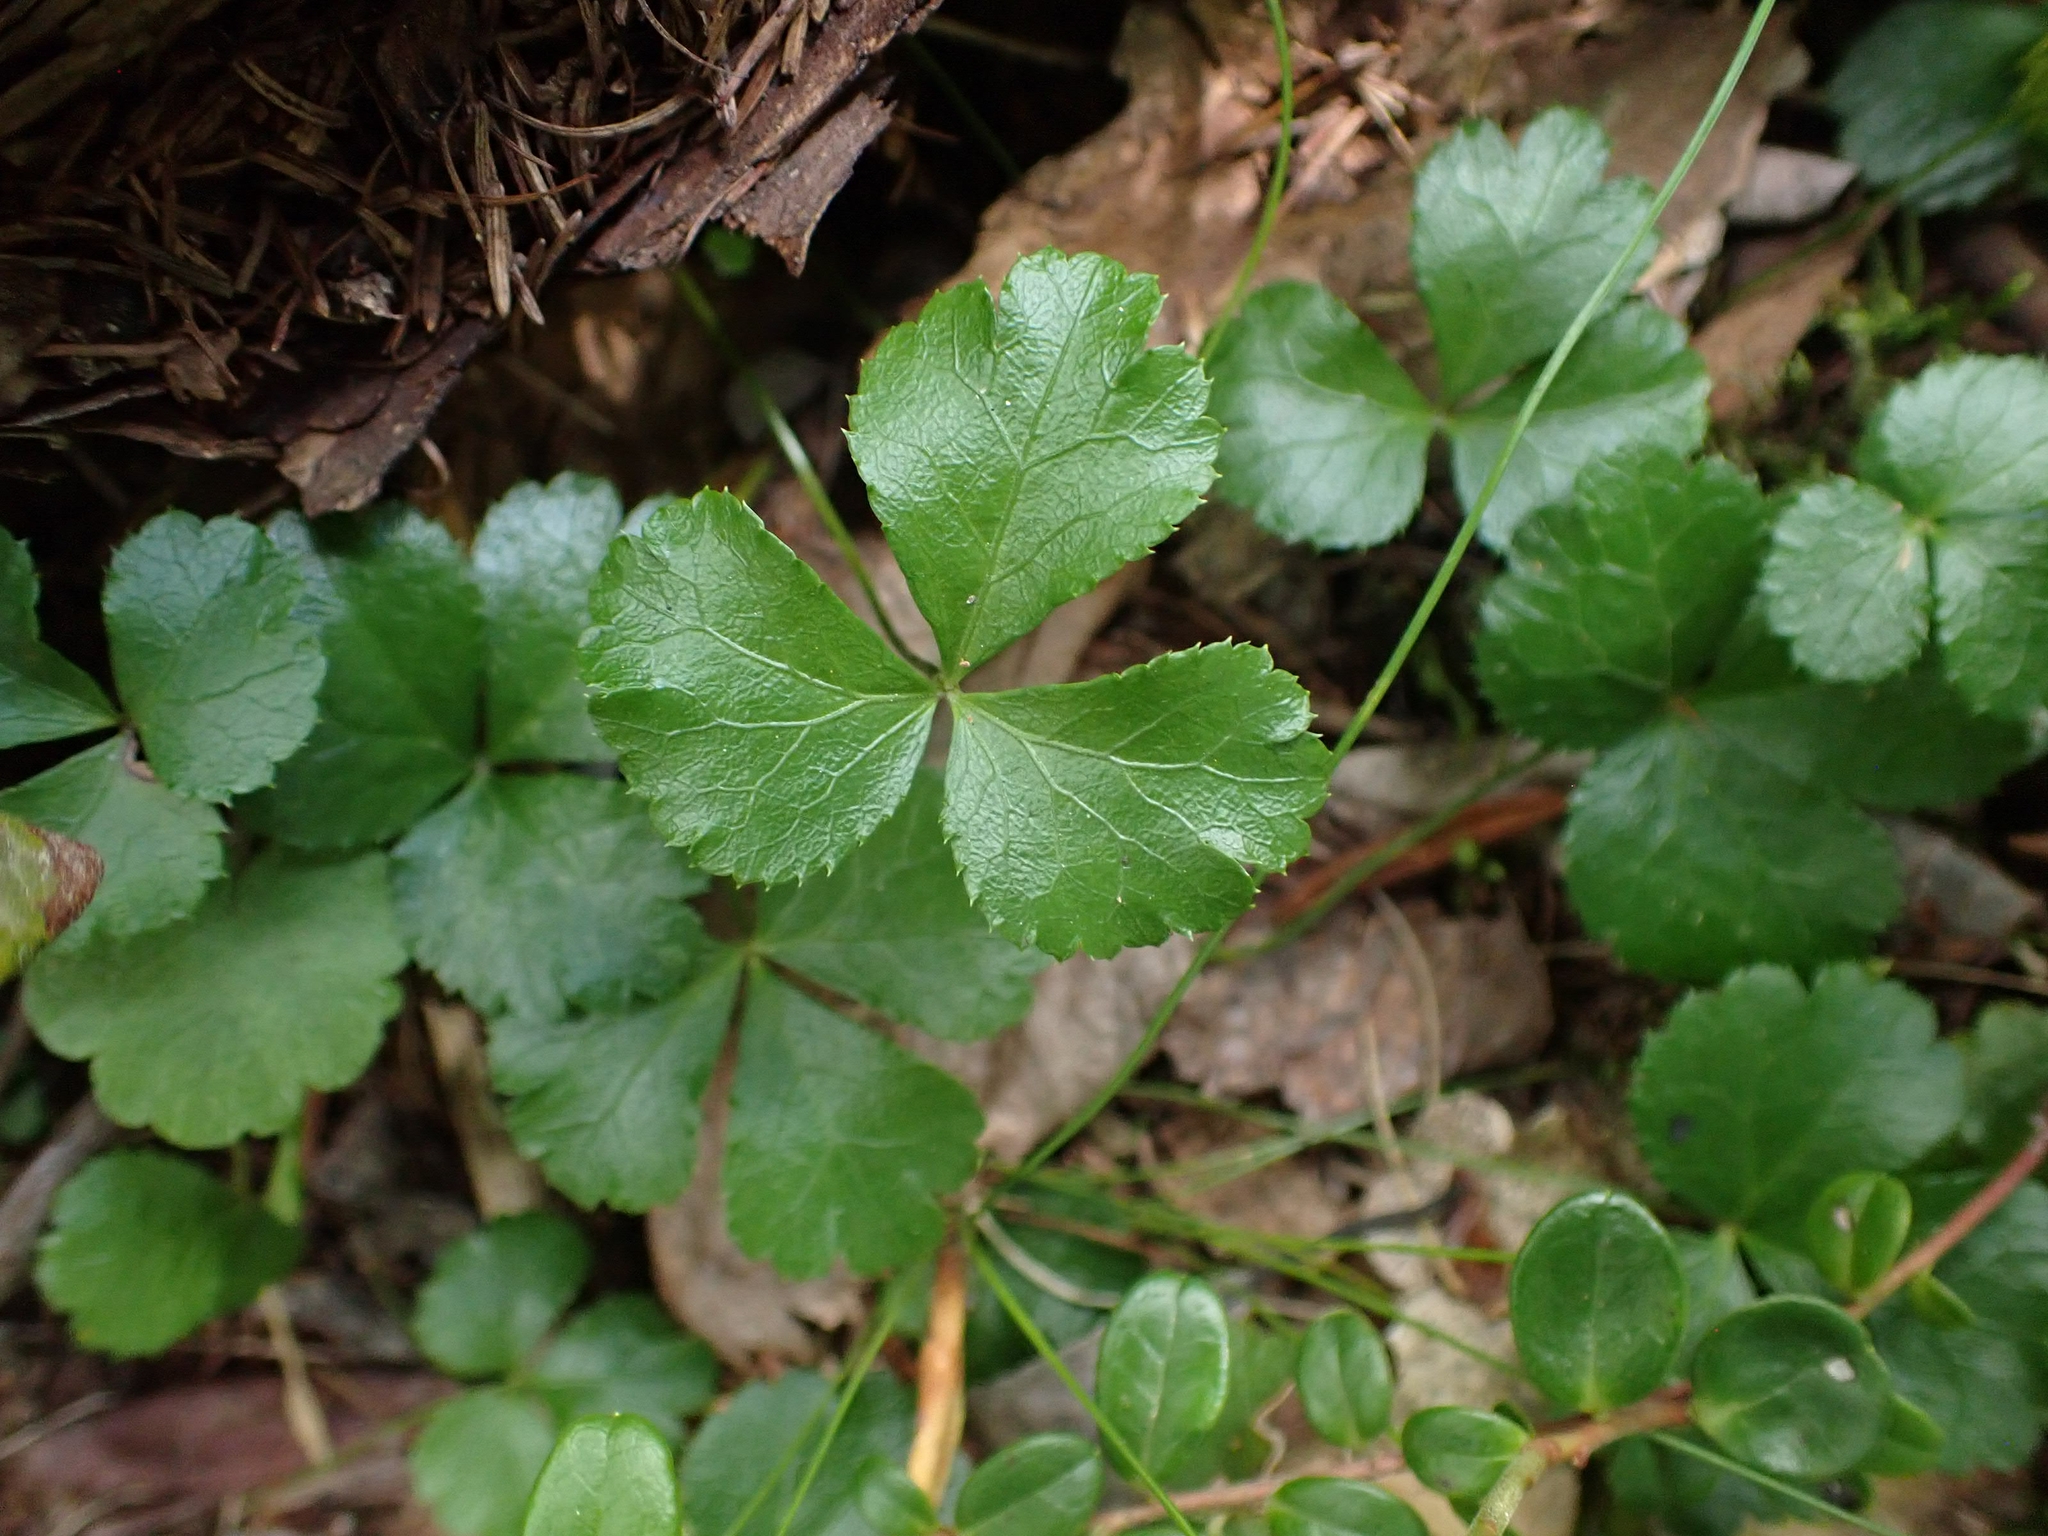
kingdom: Plantae
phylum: Tracheophyta
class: Magnoliopsida
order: Ranunculales
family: Ranunculaceae
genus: Coptis
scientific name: Coptis trifolia
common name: Canker-root
